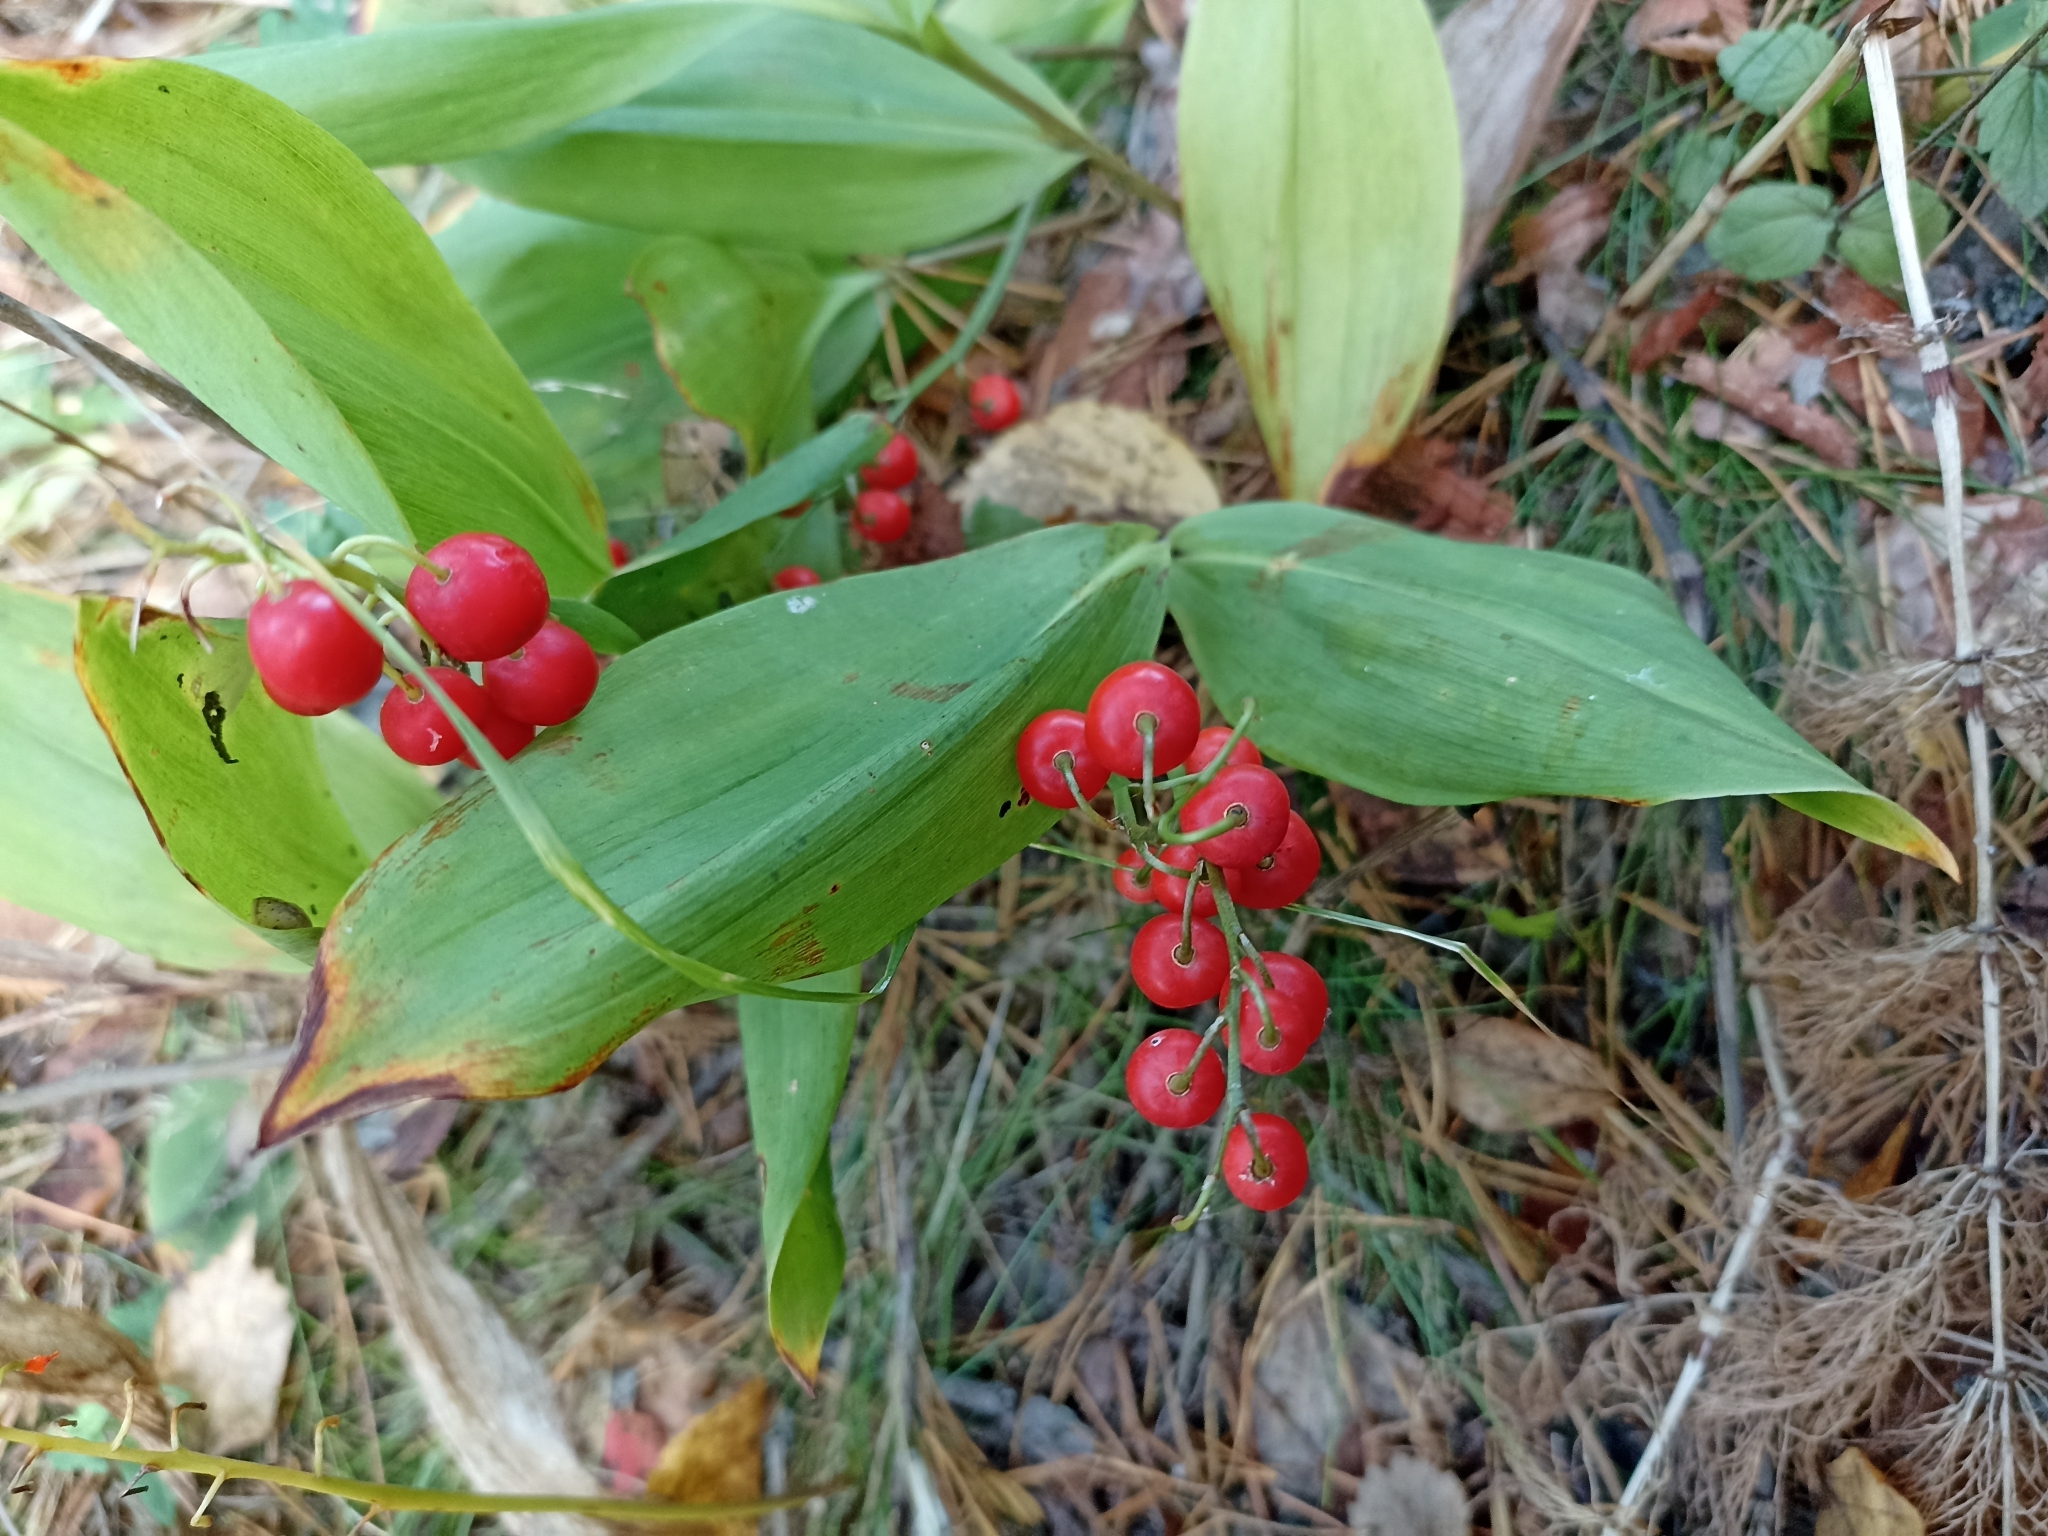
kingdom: Plantae
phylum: Tracheophyta
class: Liliopsida
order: Asparagales
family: Asparagaceae
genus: Convallaria
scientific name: Convallaria majalis
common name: Lily-of-the-valley
